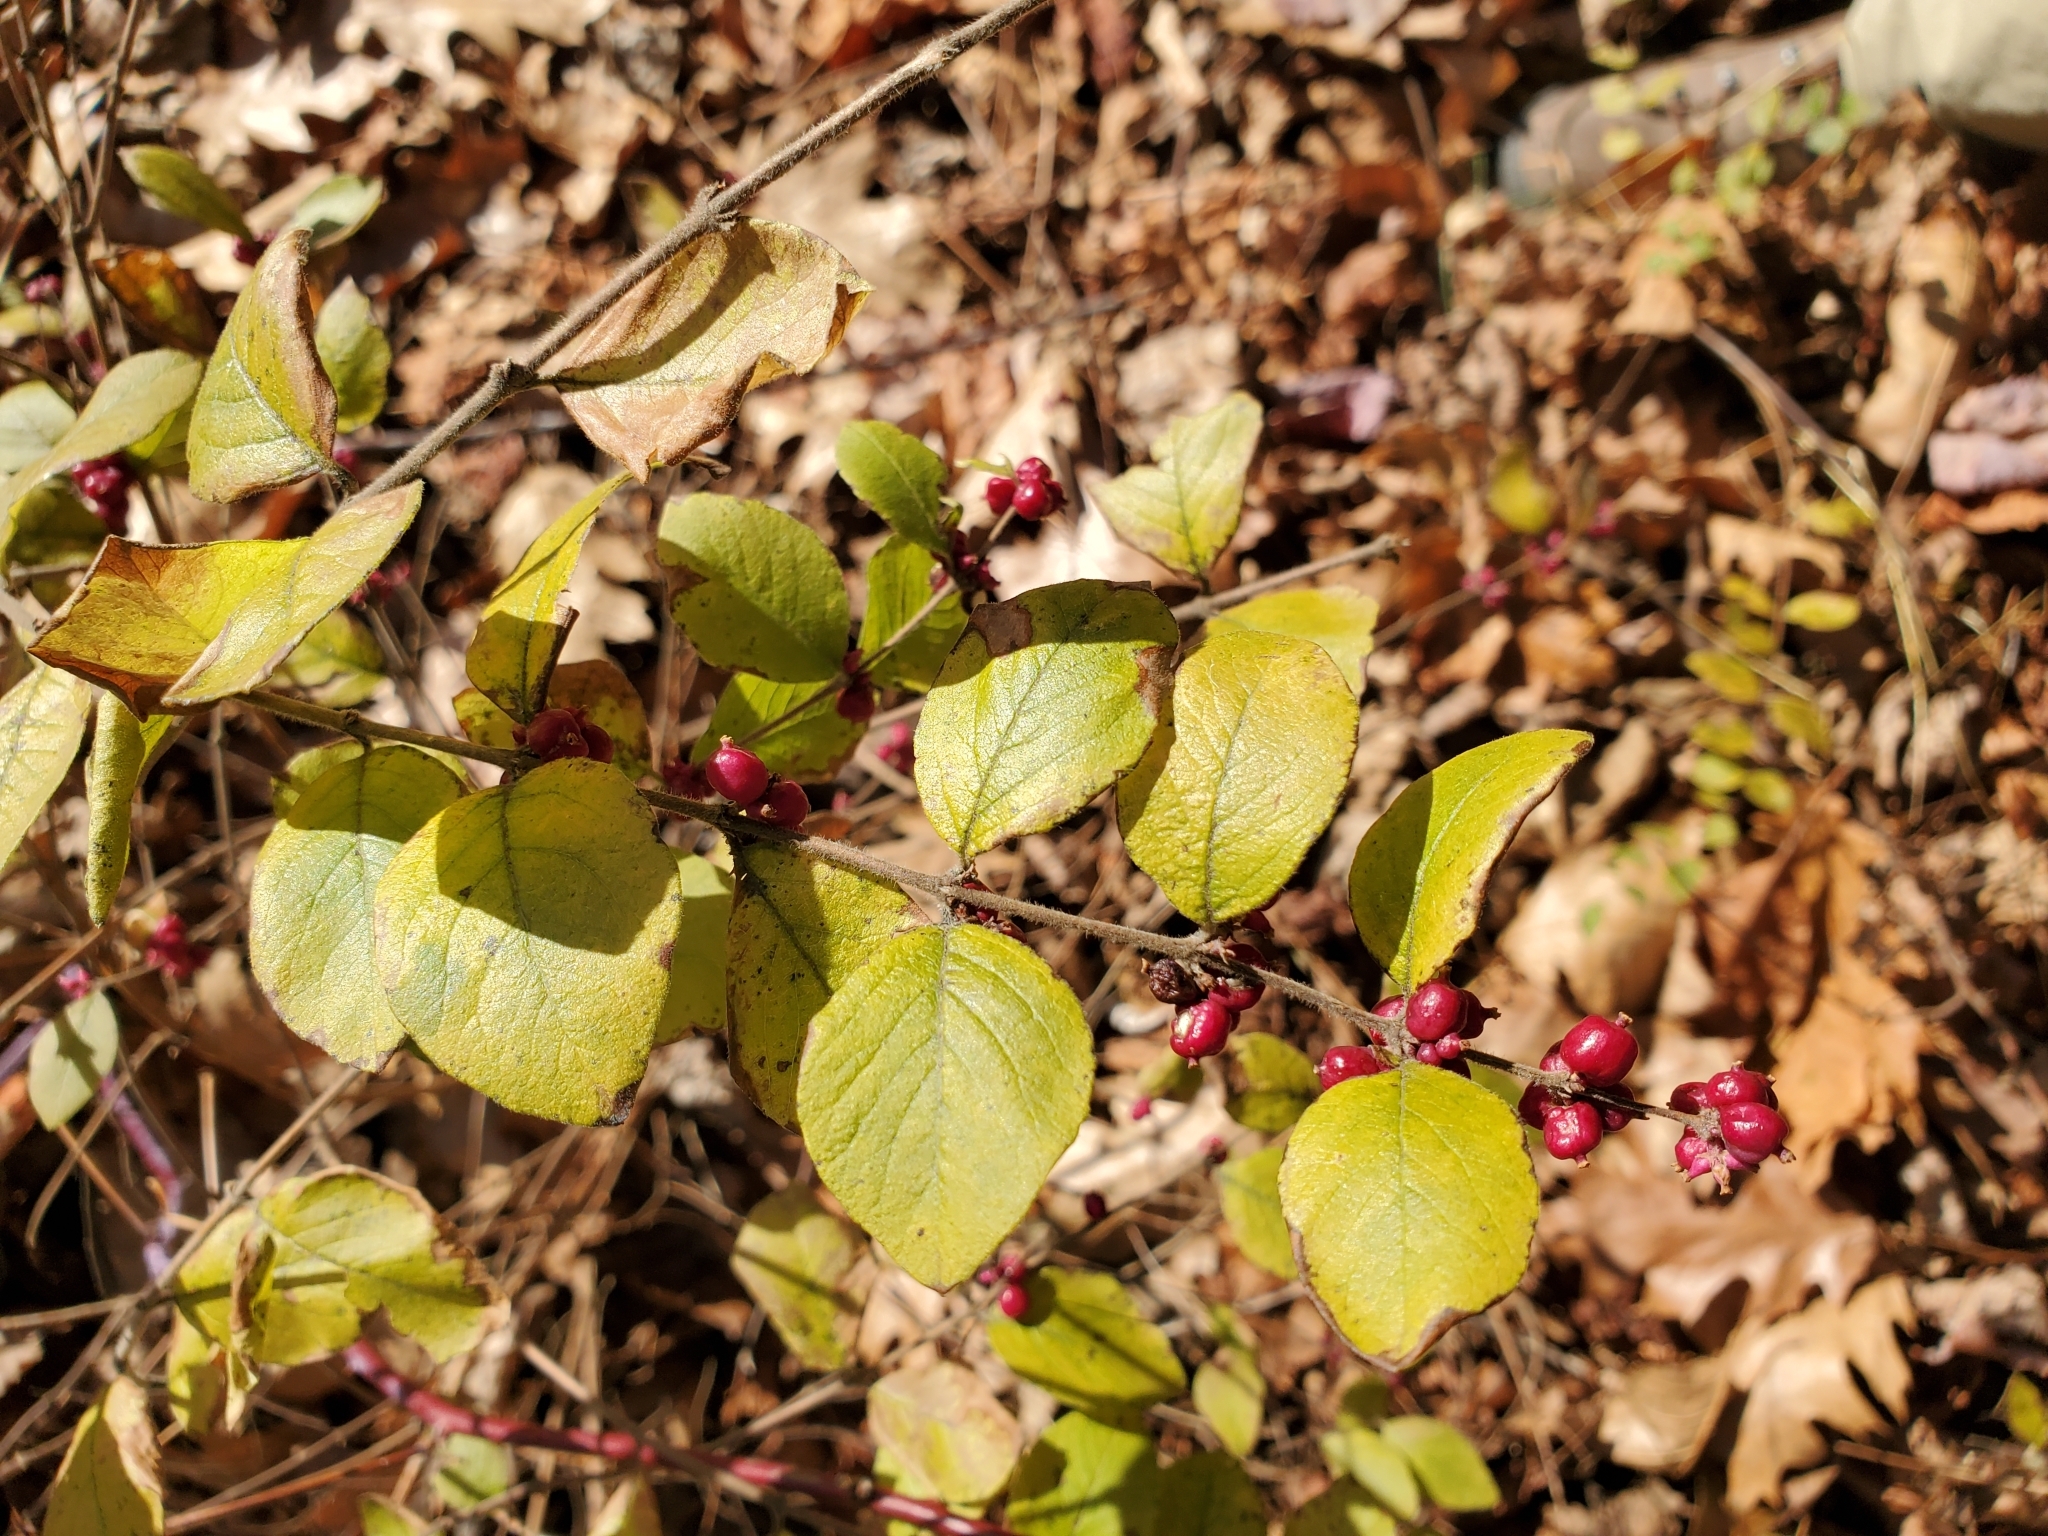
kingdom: Plantae
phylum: Tracheophyta
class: Magnoliopsida
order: Dipsacales
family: Caprifoliaceae
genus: Symphoricarpos
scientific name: Symphoricarpos orbiculatus
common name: Coralberry
